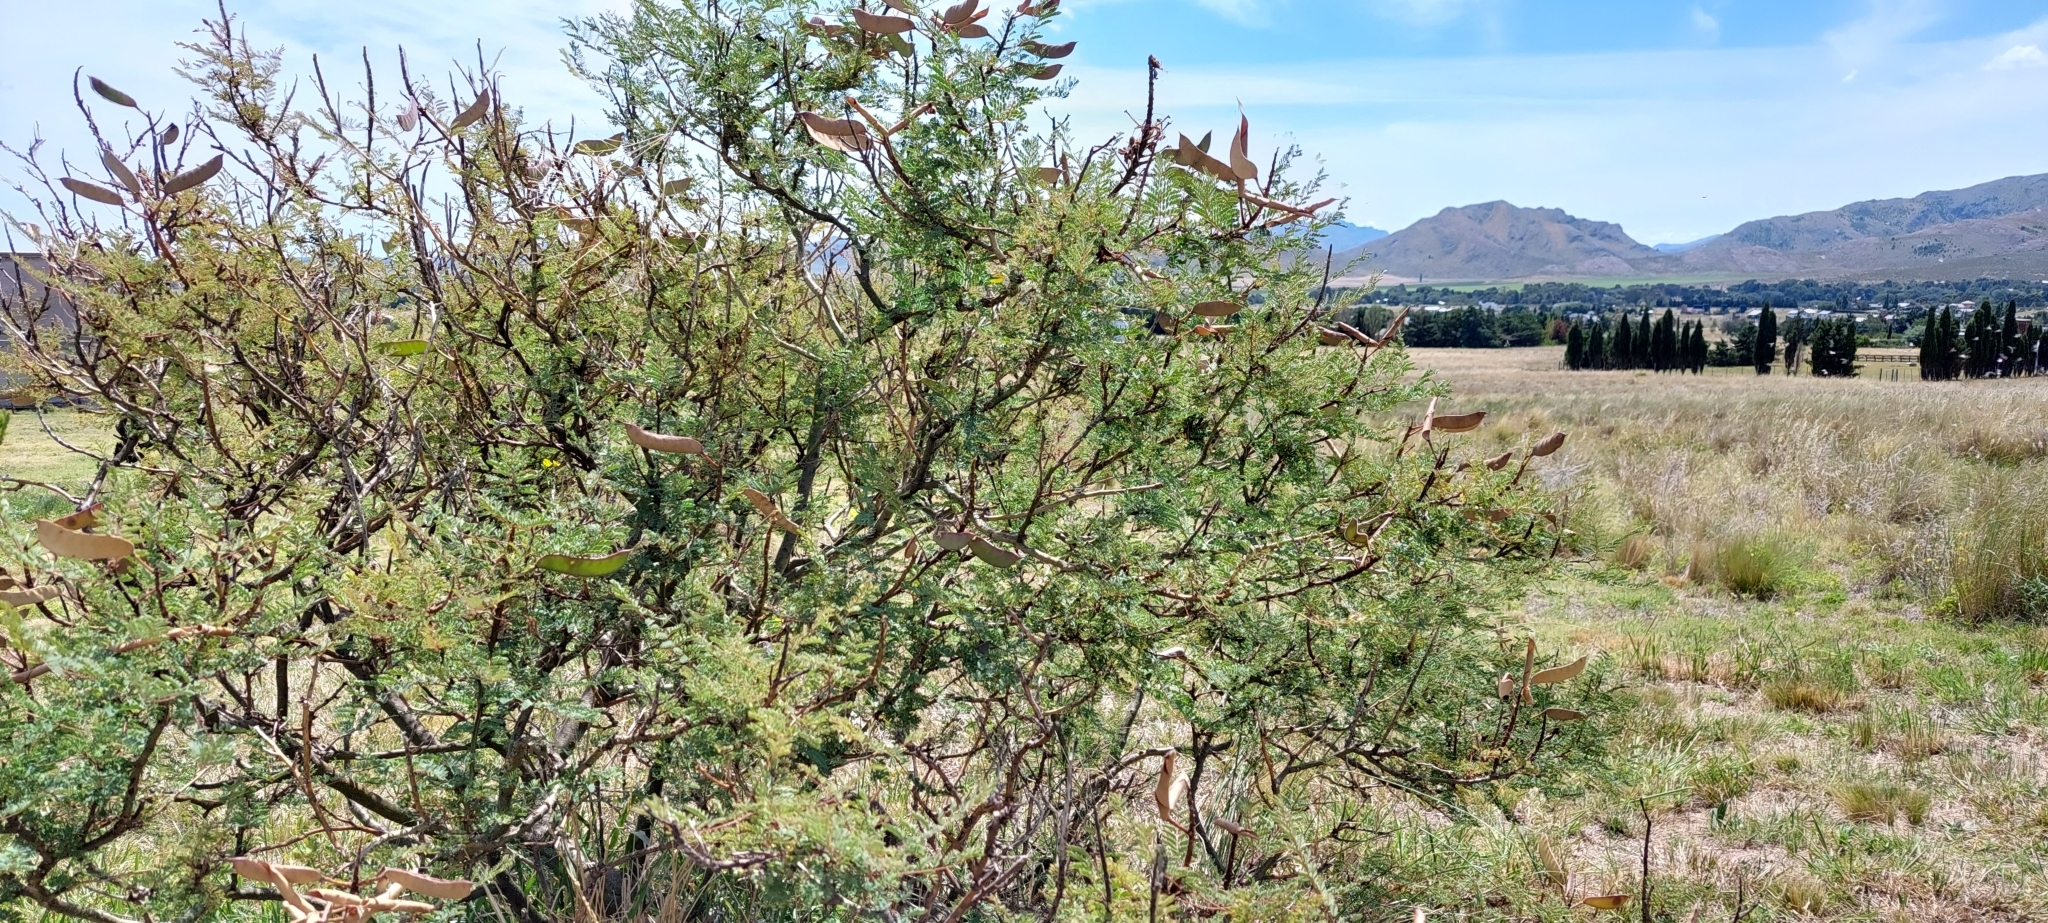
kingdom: Plantae
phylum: Tracheophyta
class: Magnoliopsida
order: Fabales
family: Fabaceae
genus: Erythrostemon
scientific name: Erythrostemon gilliesii
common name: Bird-of-paradise shrub
